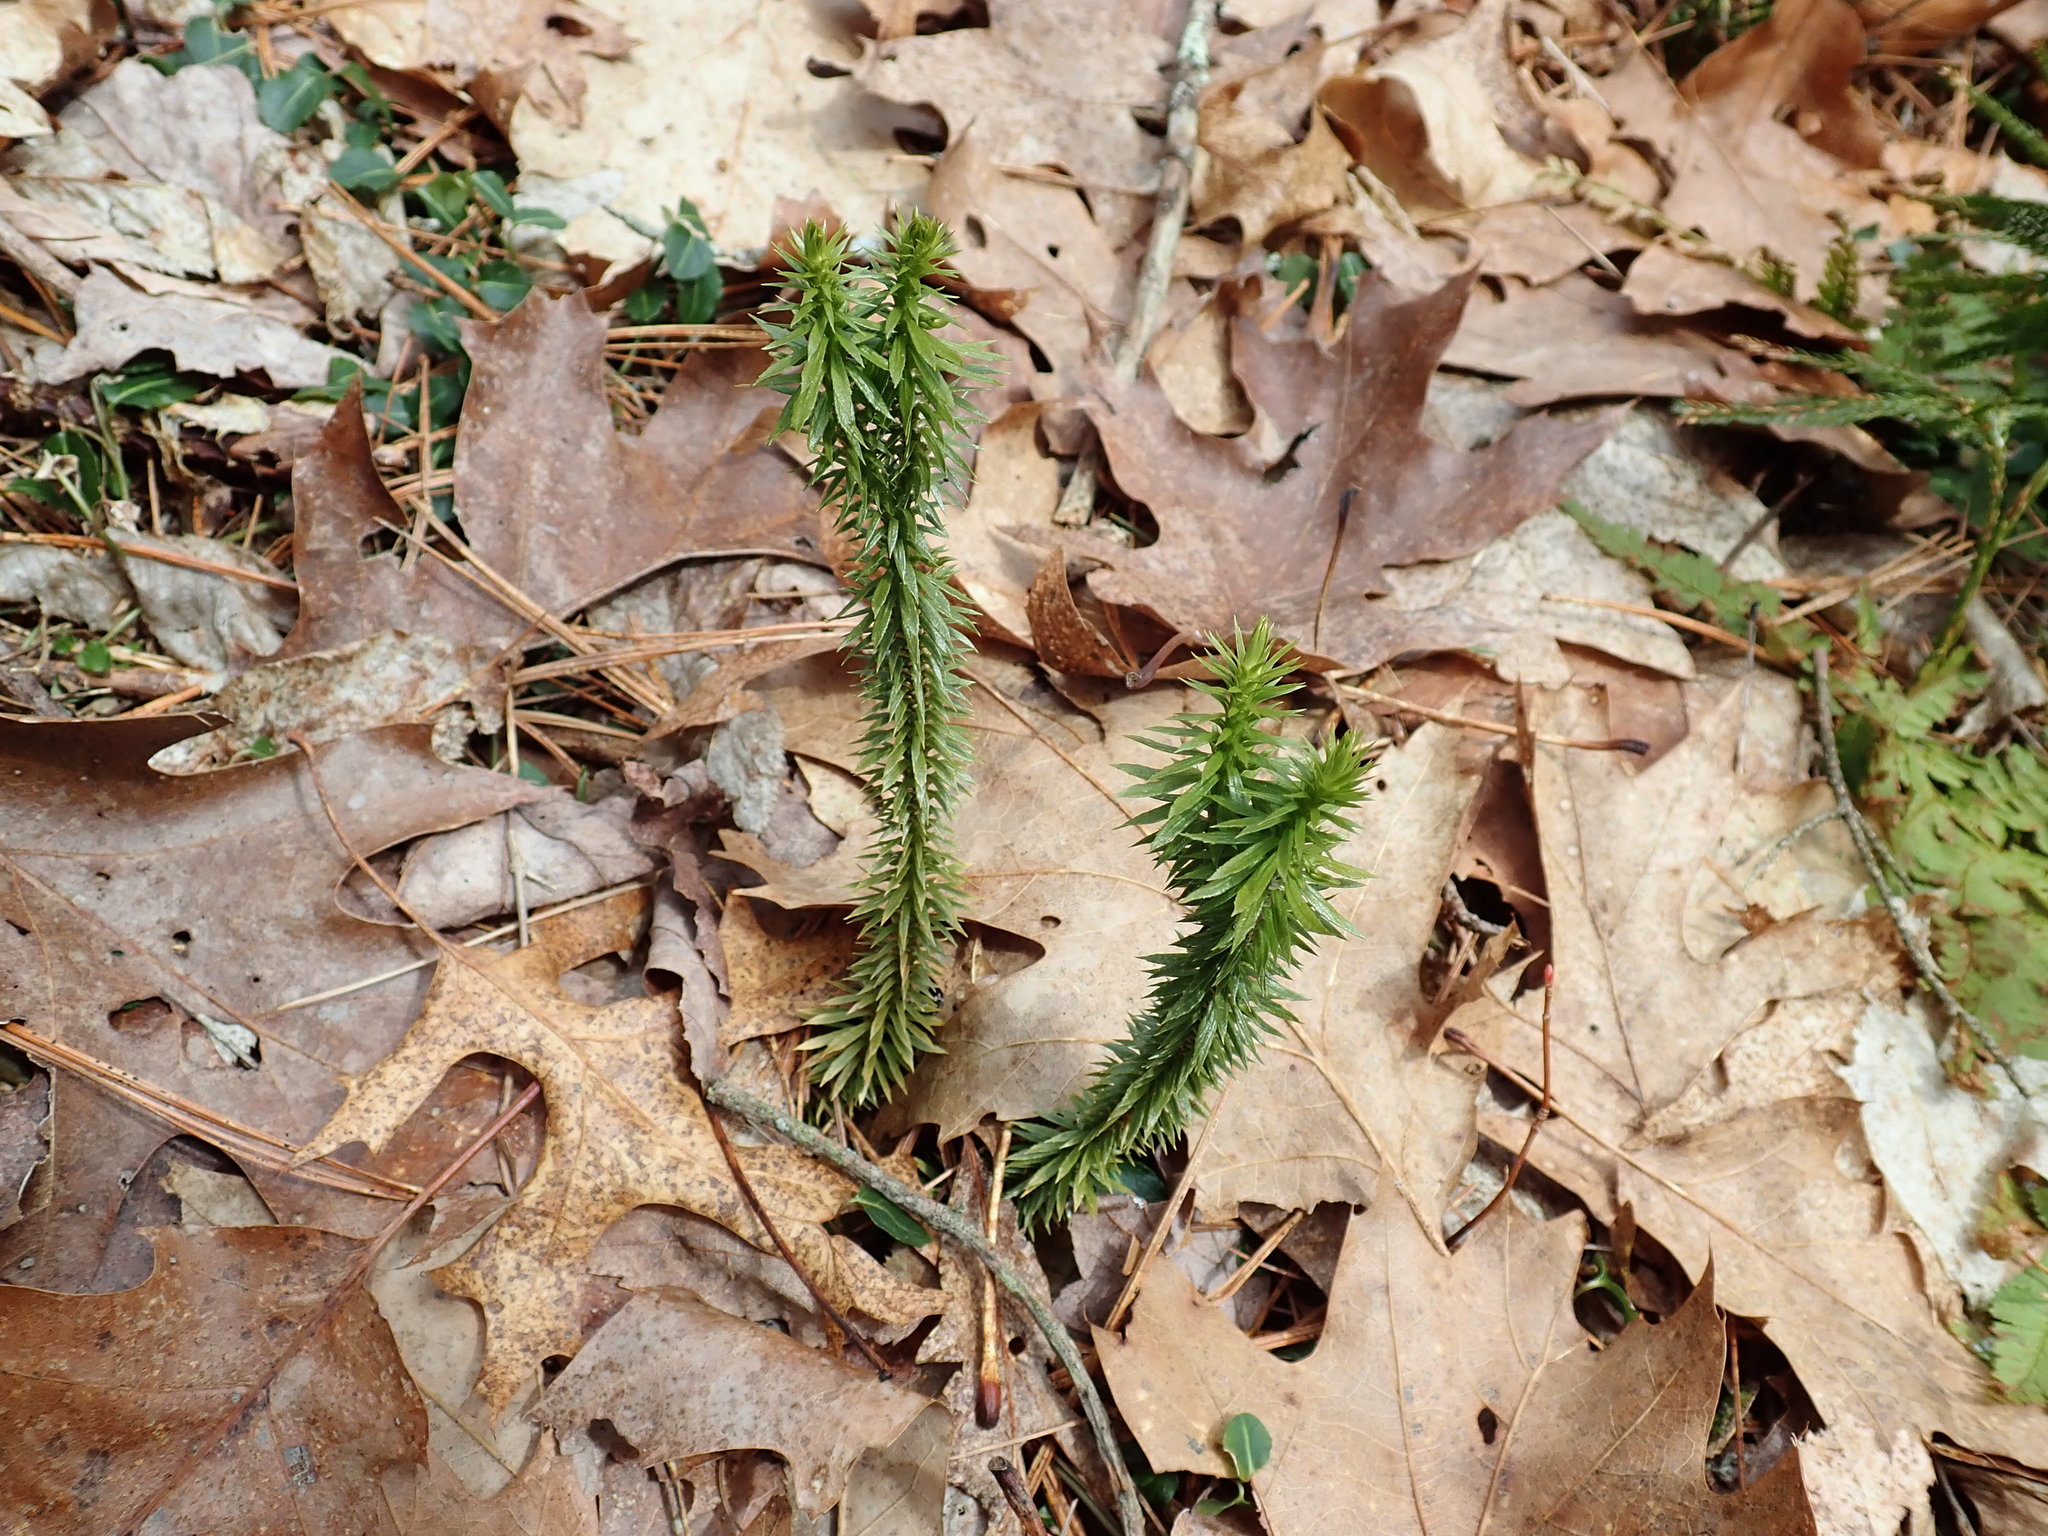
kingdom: Plantae
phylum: Tracheophyta
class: Lycopodiopsida
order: Lycopodiales
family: Lycopodiaceae
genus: Huperzia
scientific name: Huperzia lucidula
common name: Shining clubmoss
